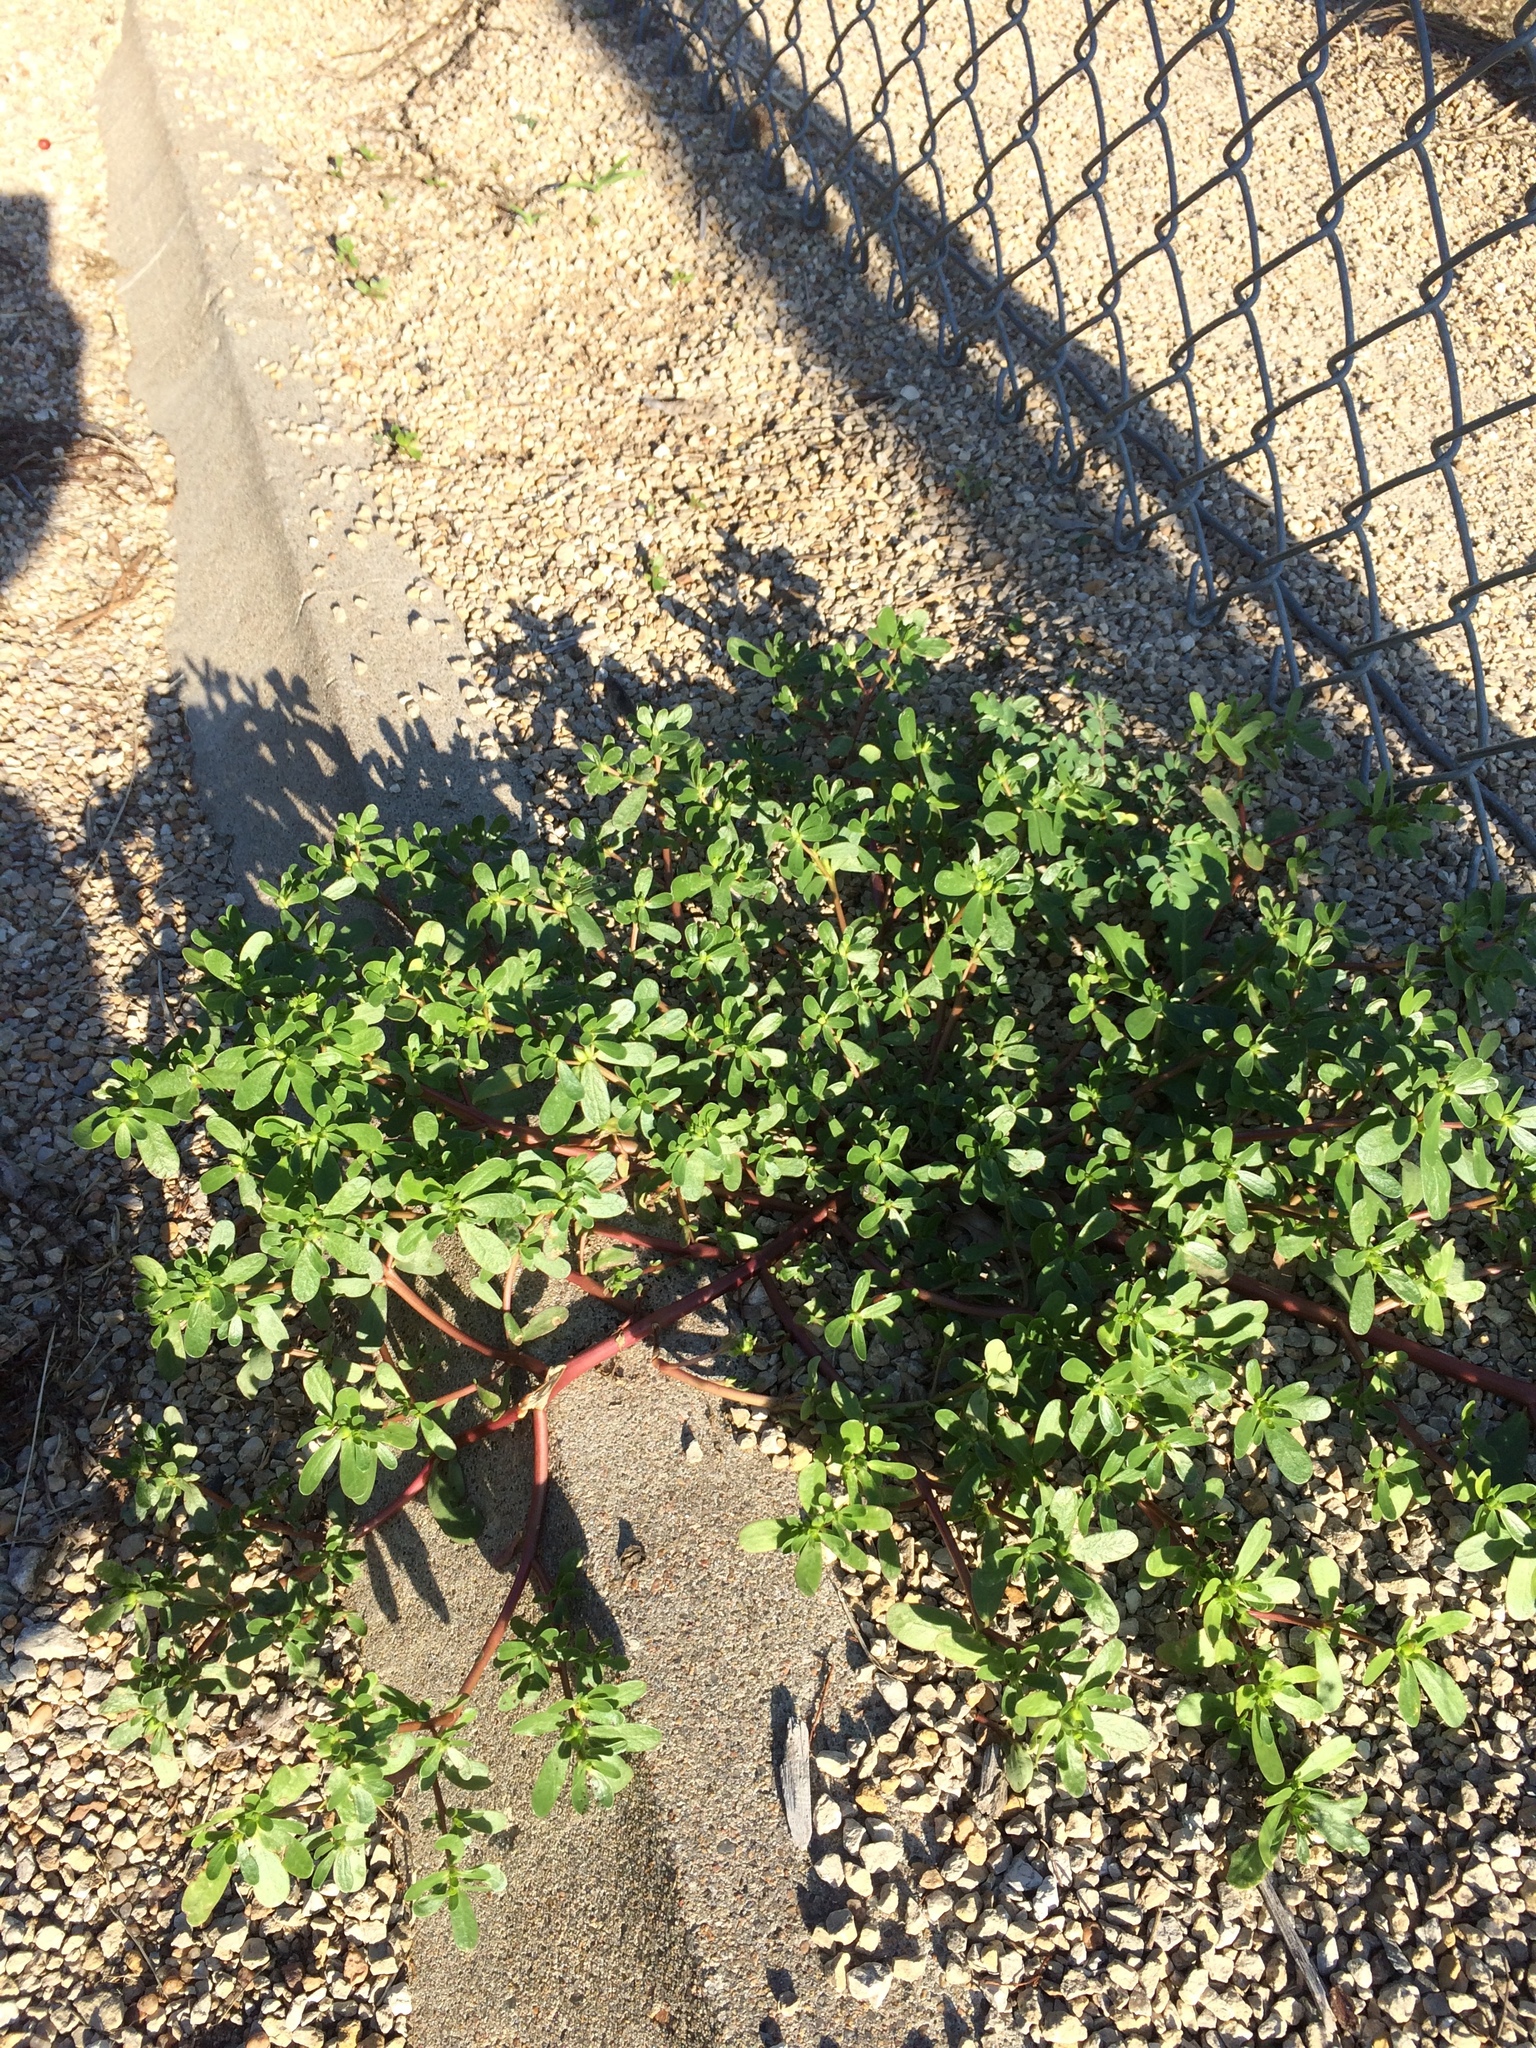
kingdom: Plantae
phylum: Tracheophyta
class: Magnoliopsida
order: Caryophyllales
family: Portulacaceae
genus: Portulaca
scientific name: Portulaca oleracea
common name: Common purslane
